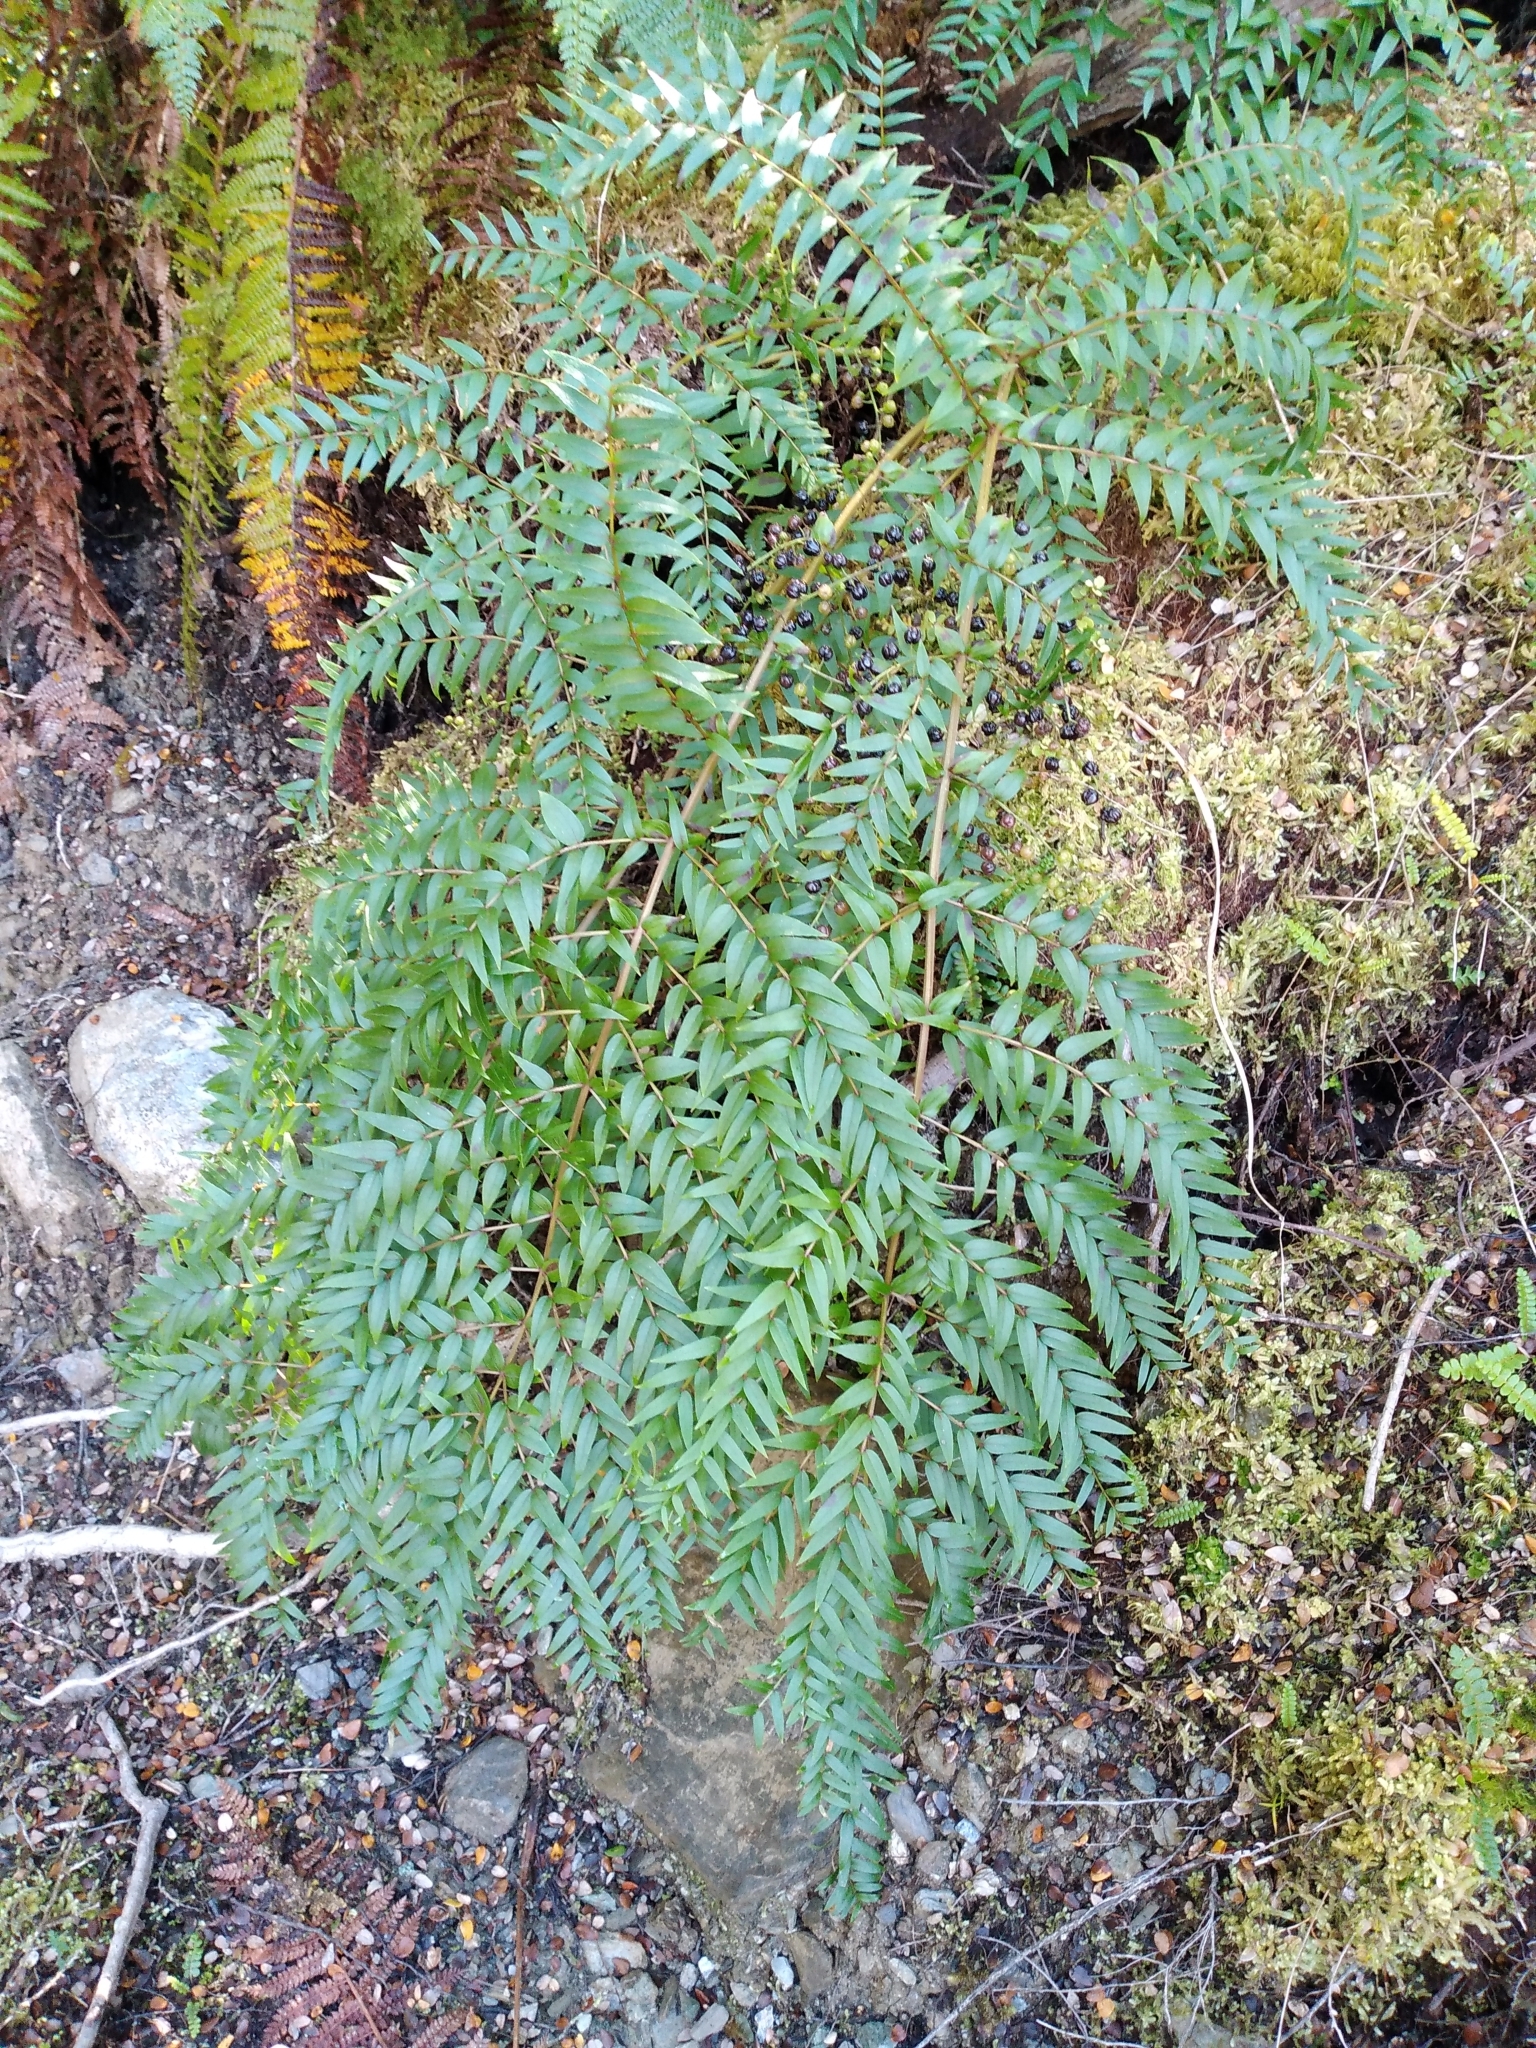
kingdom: Plantae
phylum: Tracheophyta
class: Magnoliopsida
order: Cucurbitales
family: Coriariaceae
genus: Coriaria
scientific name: Coriaria plumosa
